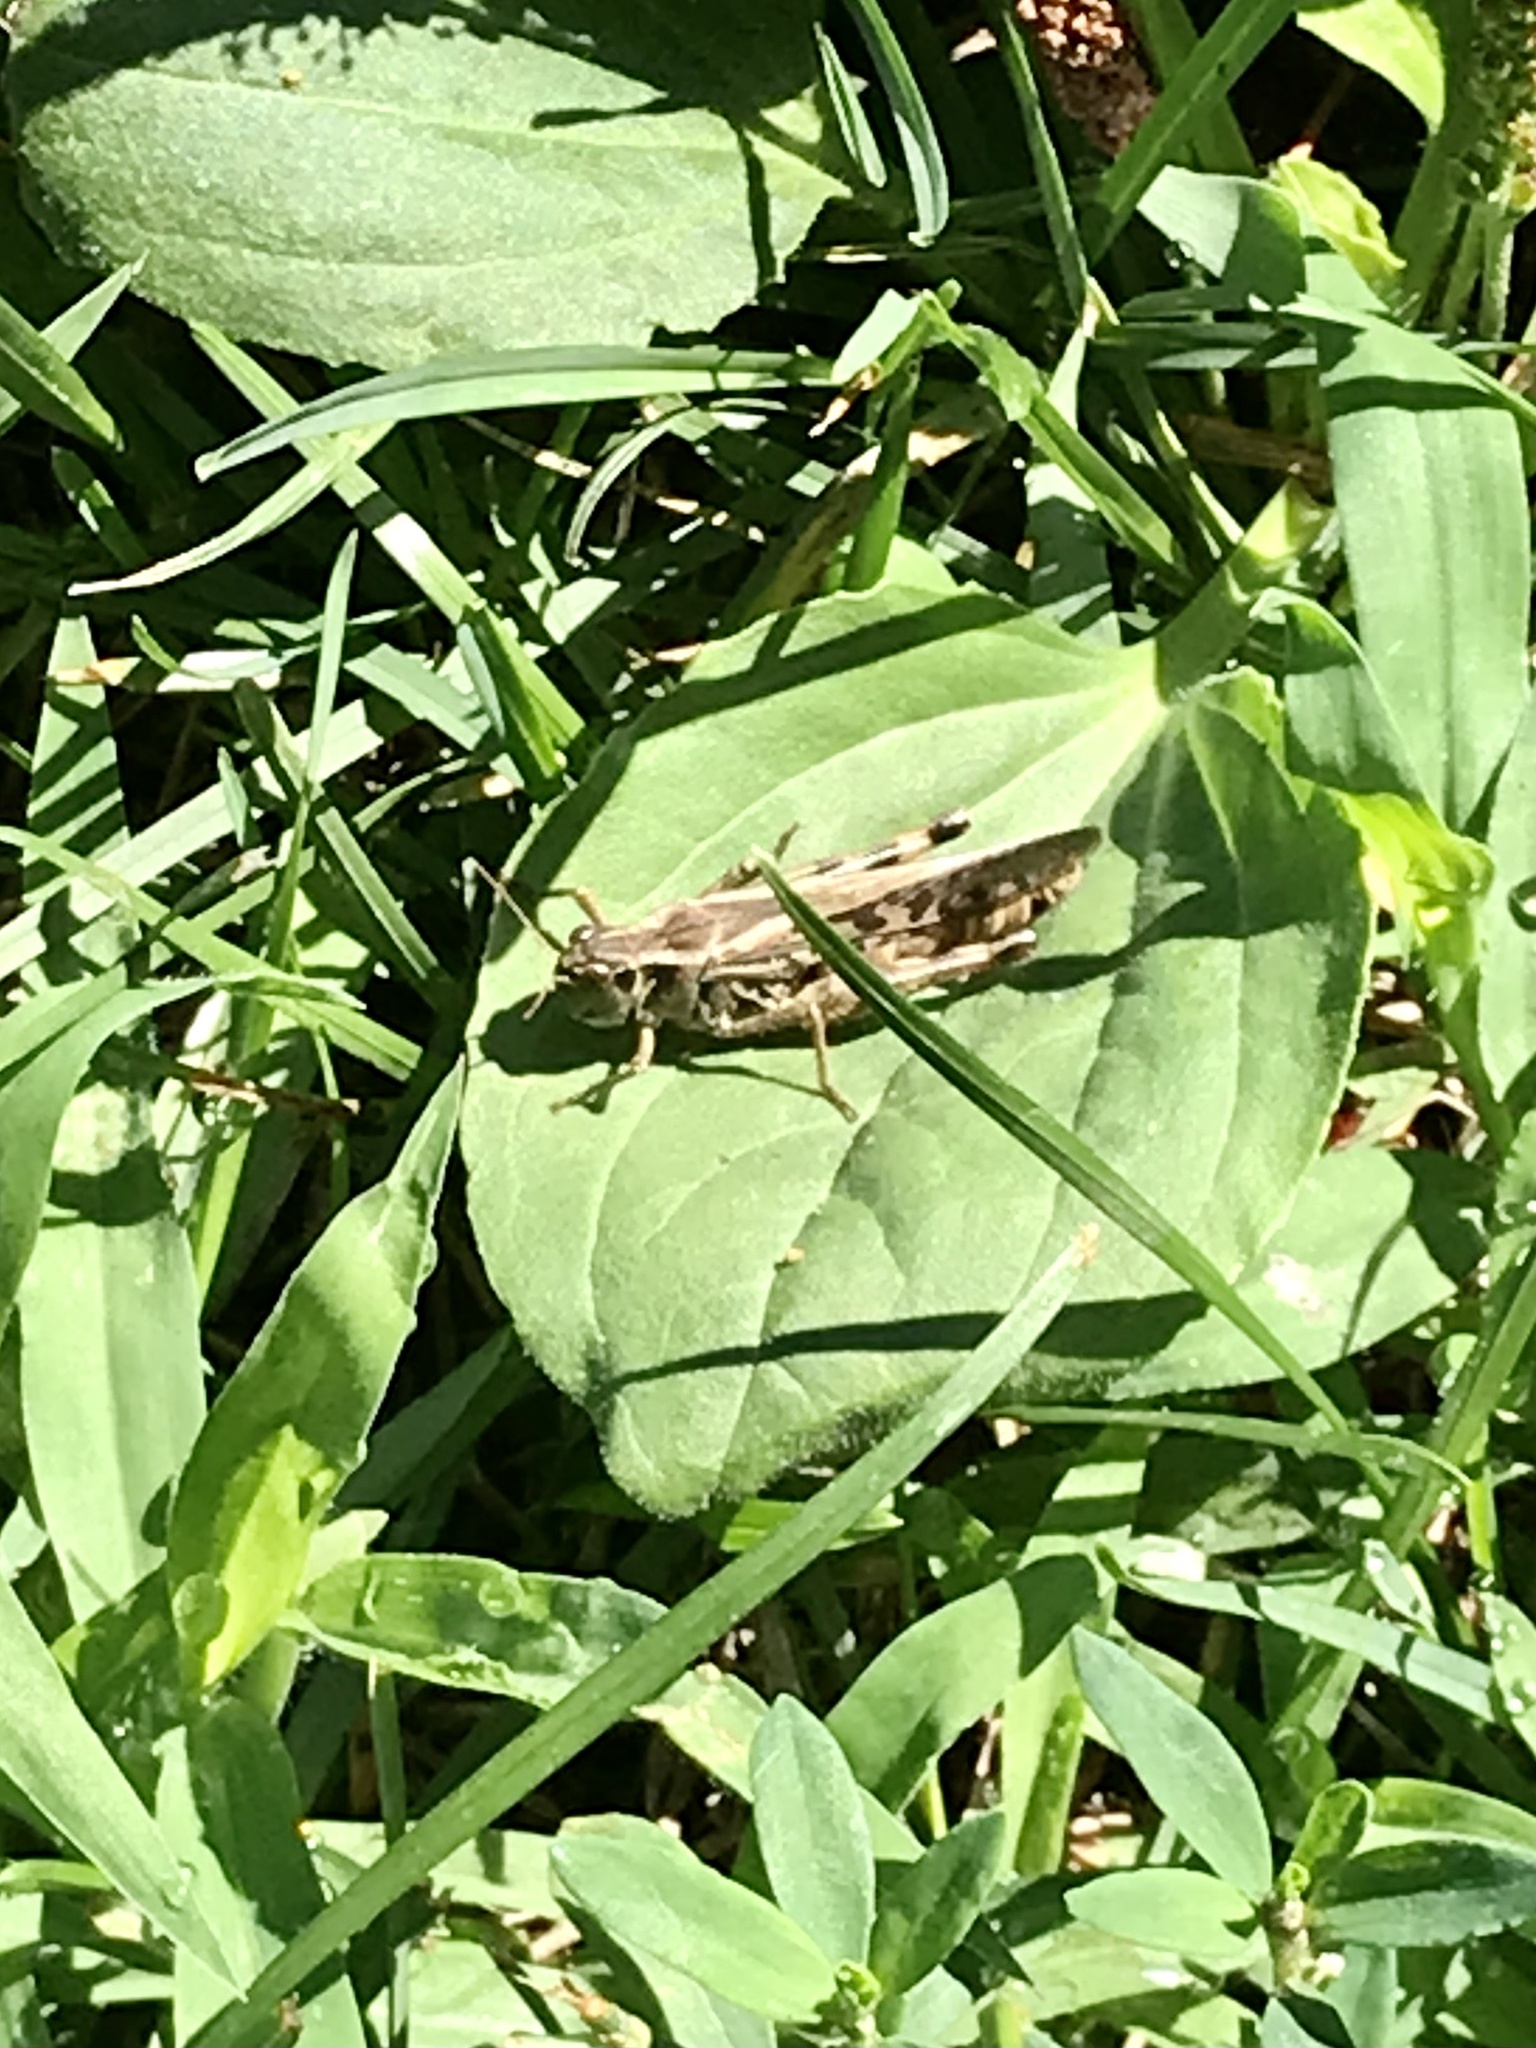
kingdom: Animalia
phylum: Arthropoda
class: Insecta
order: Orthoptera
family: Acrididae
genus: Camnula
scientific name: Camnula pellucida
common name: Clear-winged grasshopper
